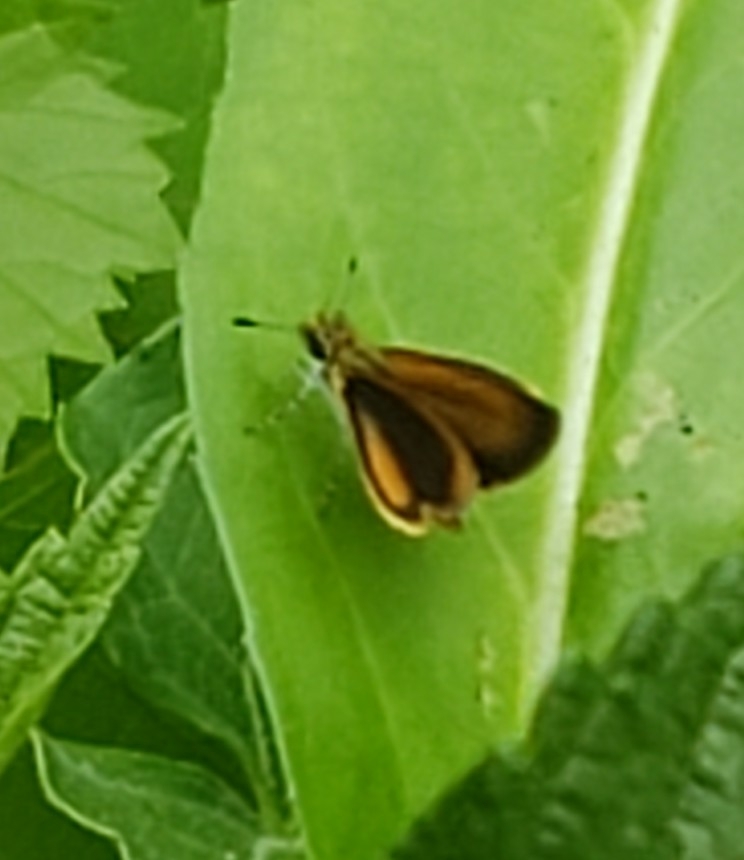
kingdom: Animalia
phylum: Arthropoda
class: Insecta
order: Lepidoptera
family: Hesperiidae
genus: Ancyloxypha
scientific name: Ancyloxypha numitor
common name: Least skipper
